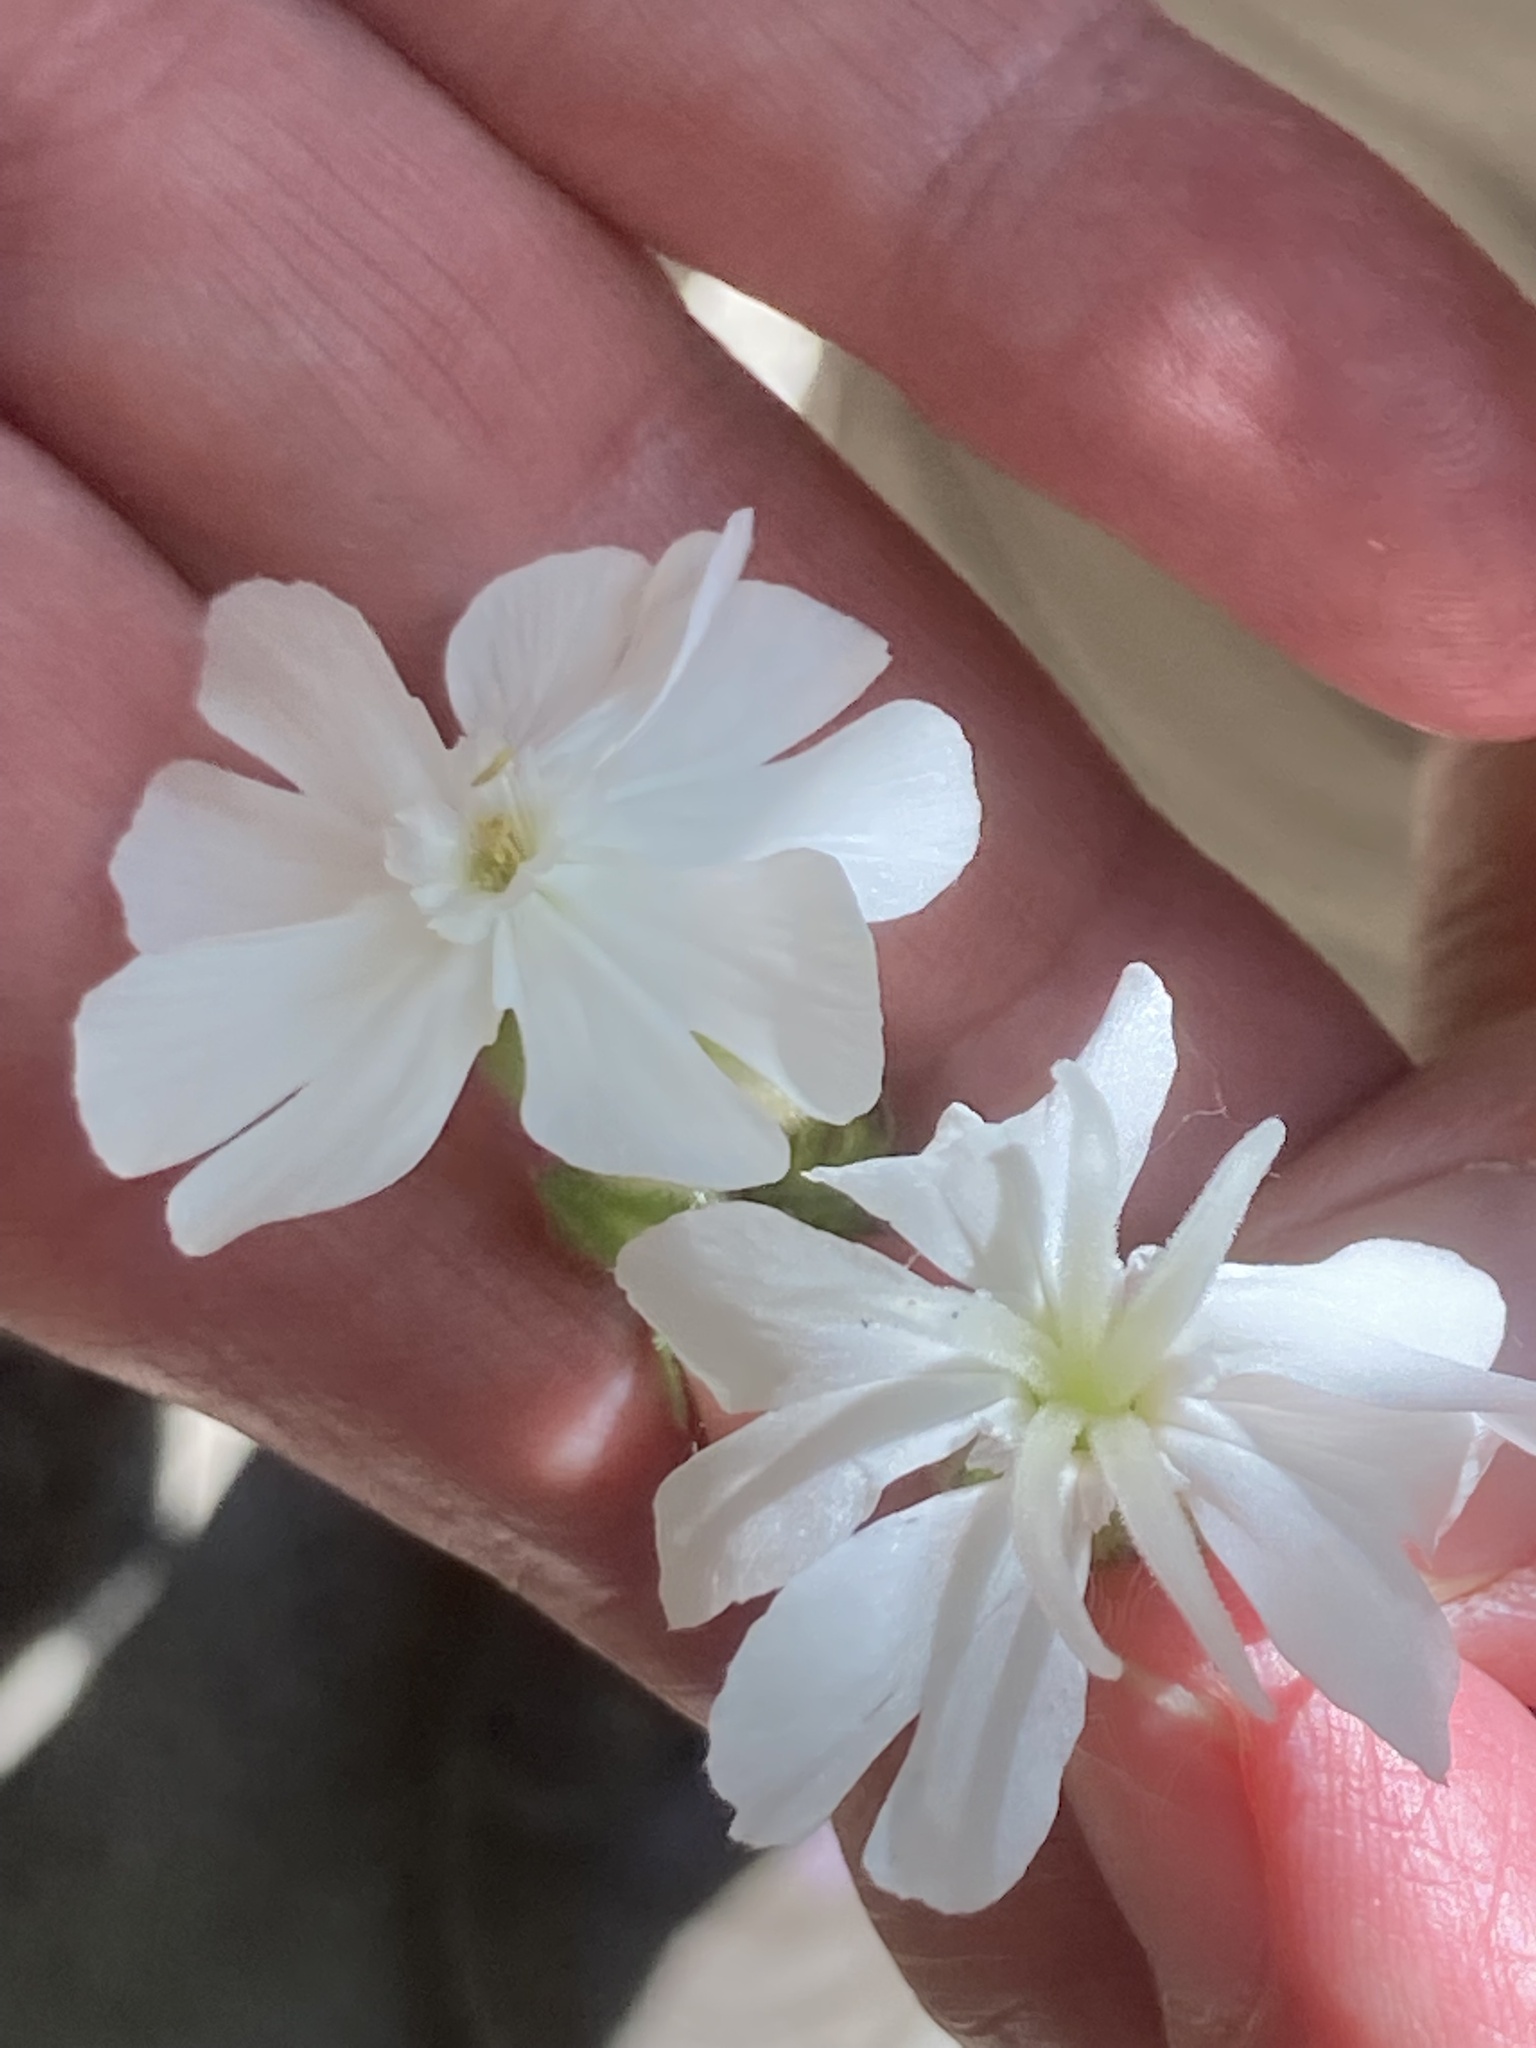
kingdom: Plantae
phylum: Tracheophyta
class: Magnoliopsida
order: Caryophyllales
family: Caryophyllaceae
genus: Silene
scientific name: Silene latifolia
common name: White campion
